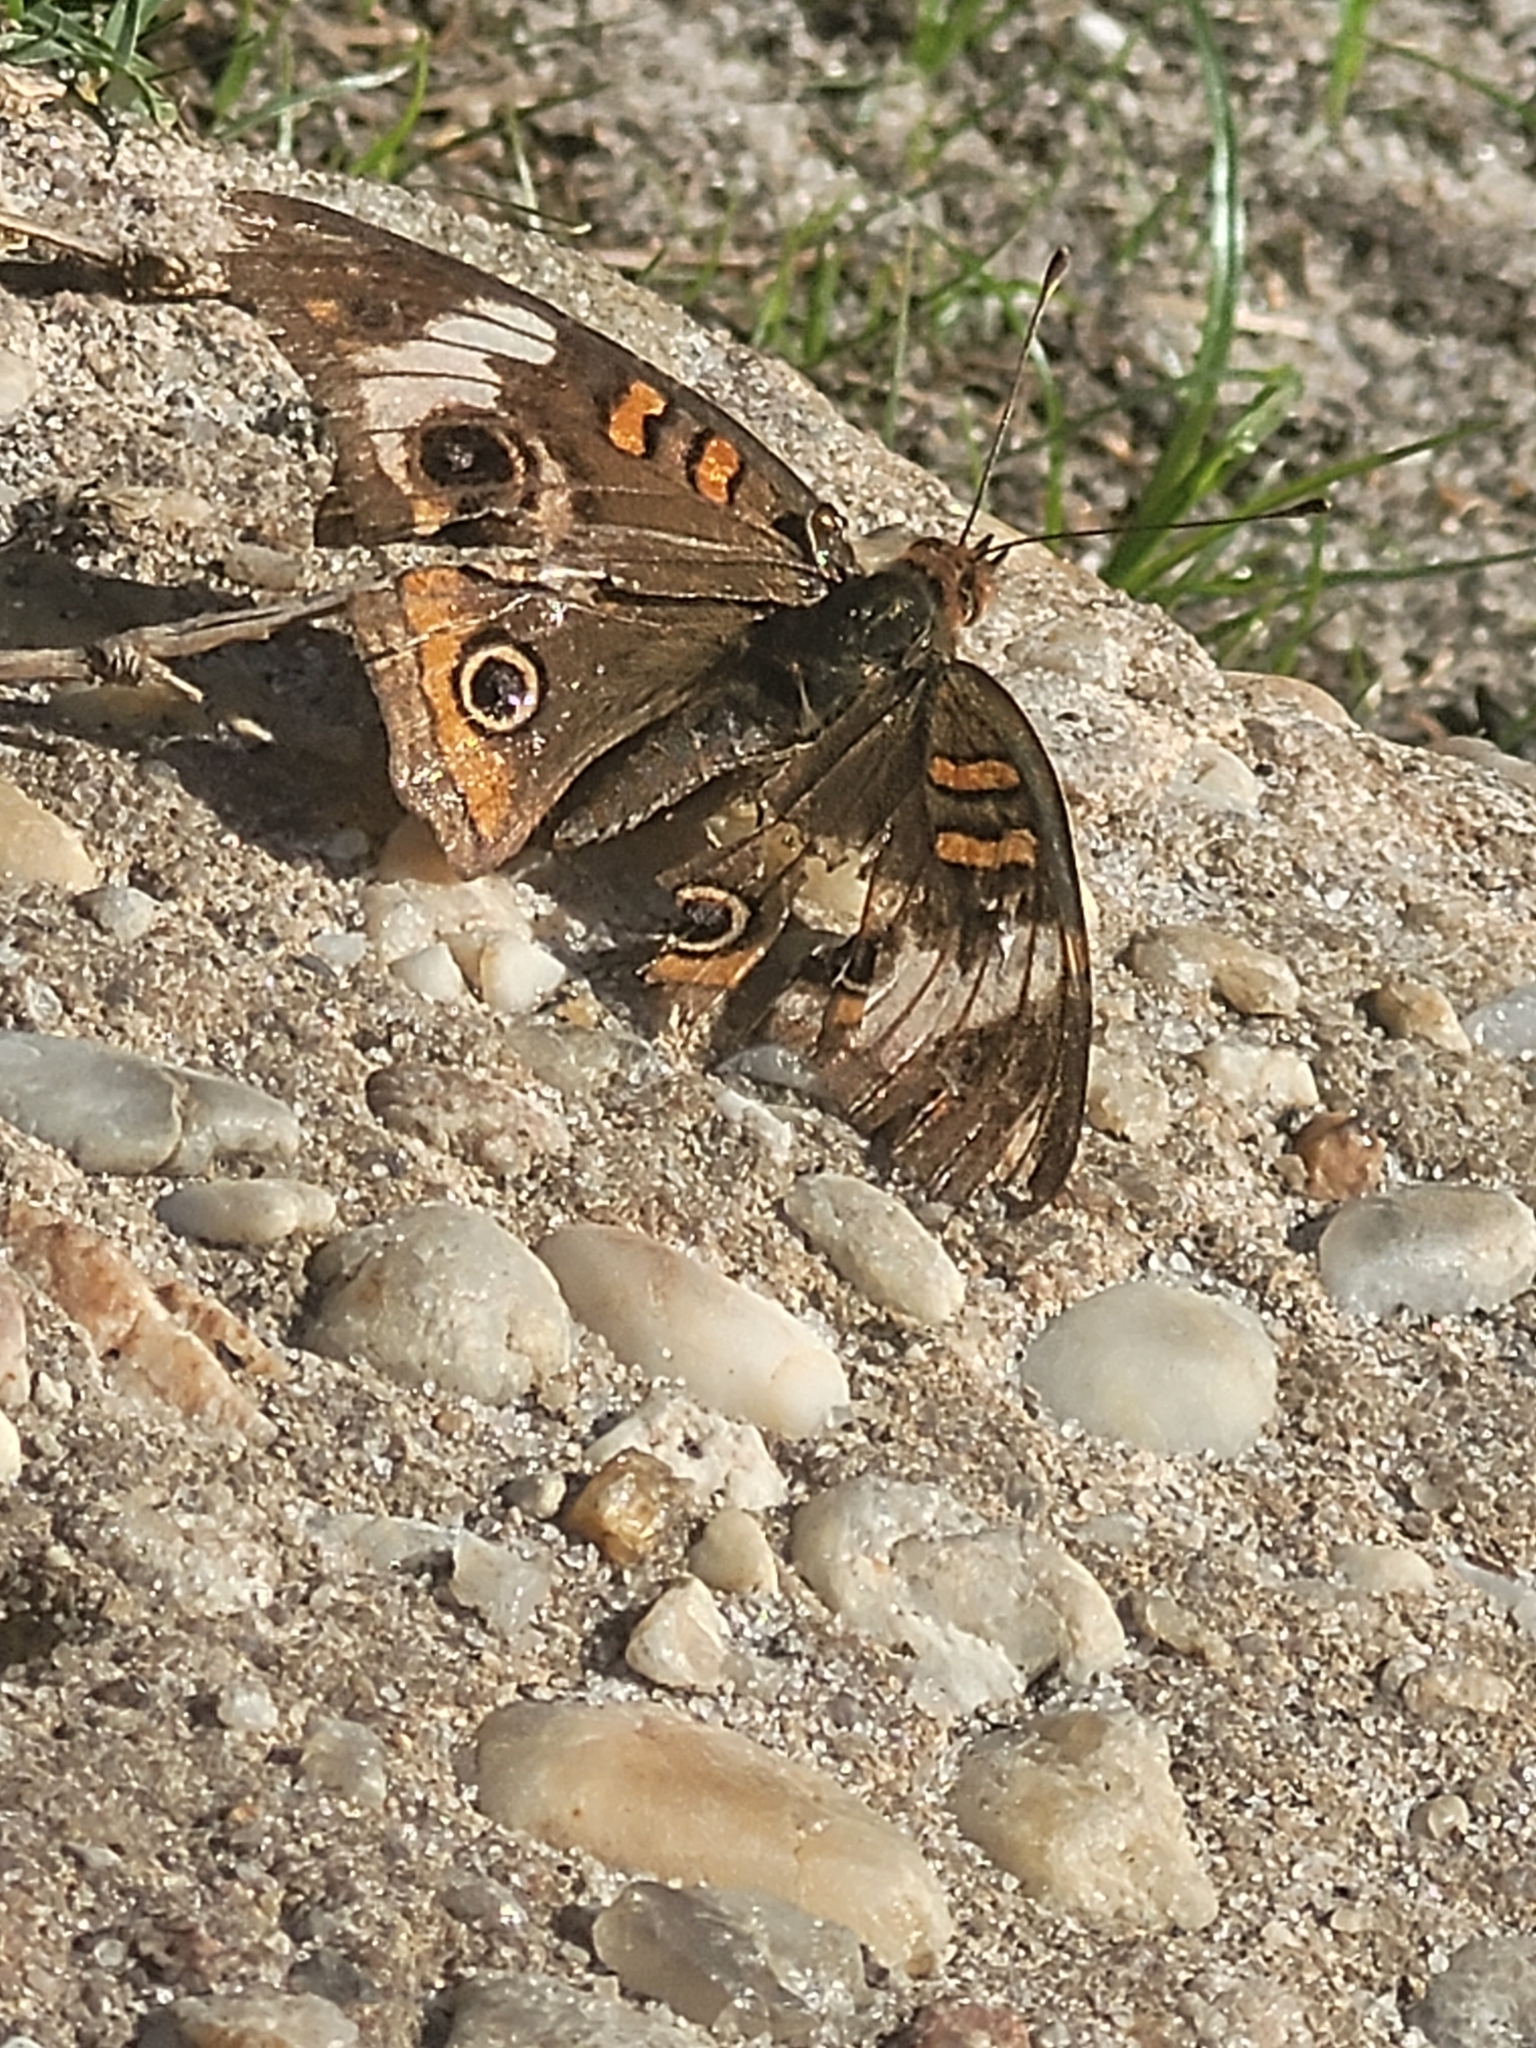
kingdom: Animalia
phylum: Arthropoda
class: Insecta
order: Lepidoptera
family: Nymphalidae
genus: Junonia
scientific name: Junonia coenia
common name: Common buckeye
